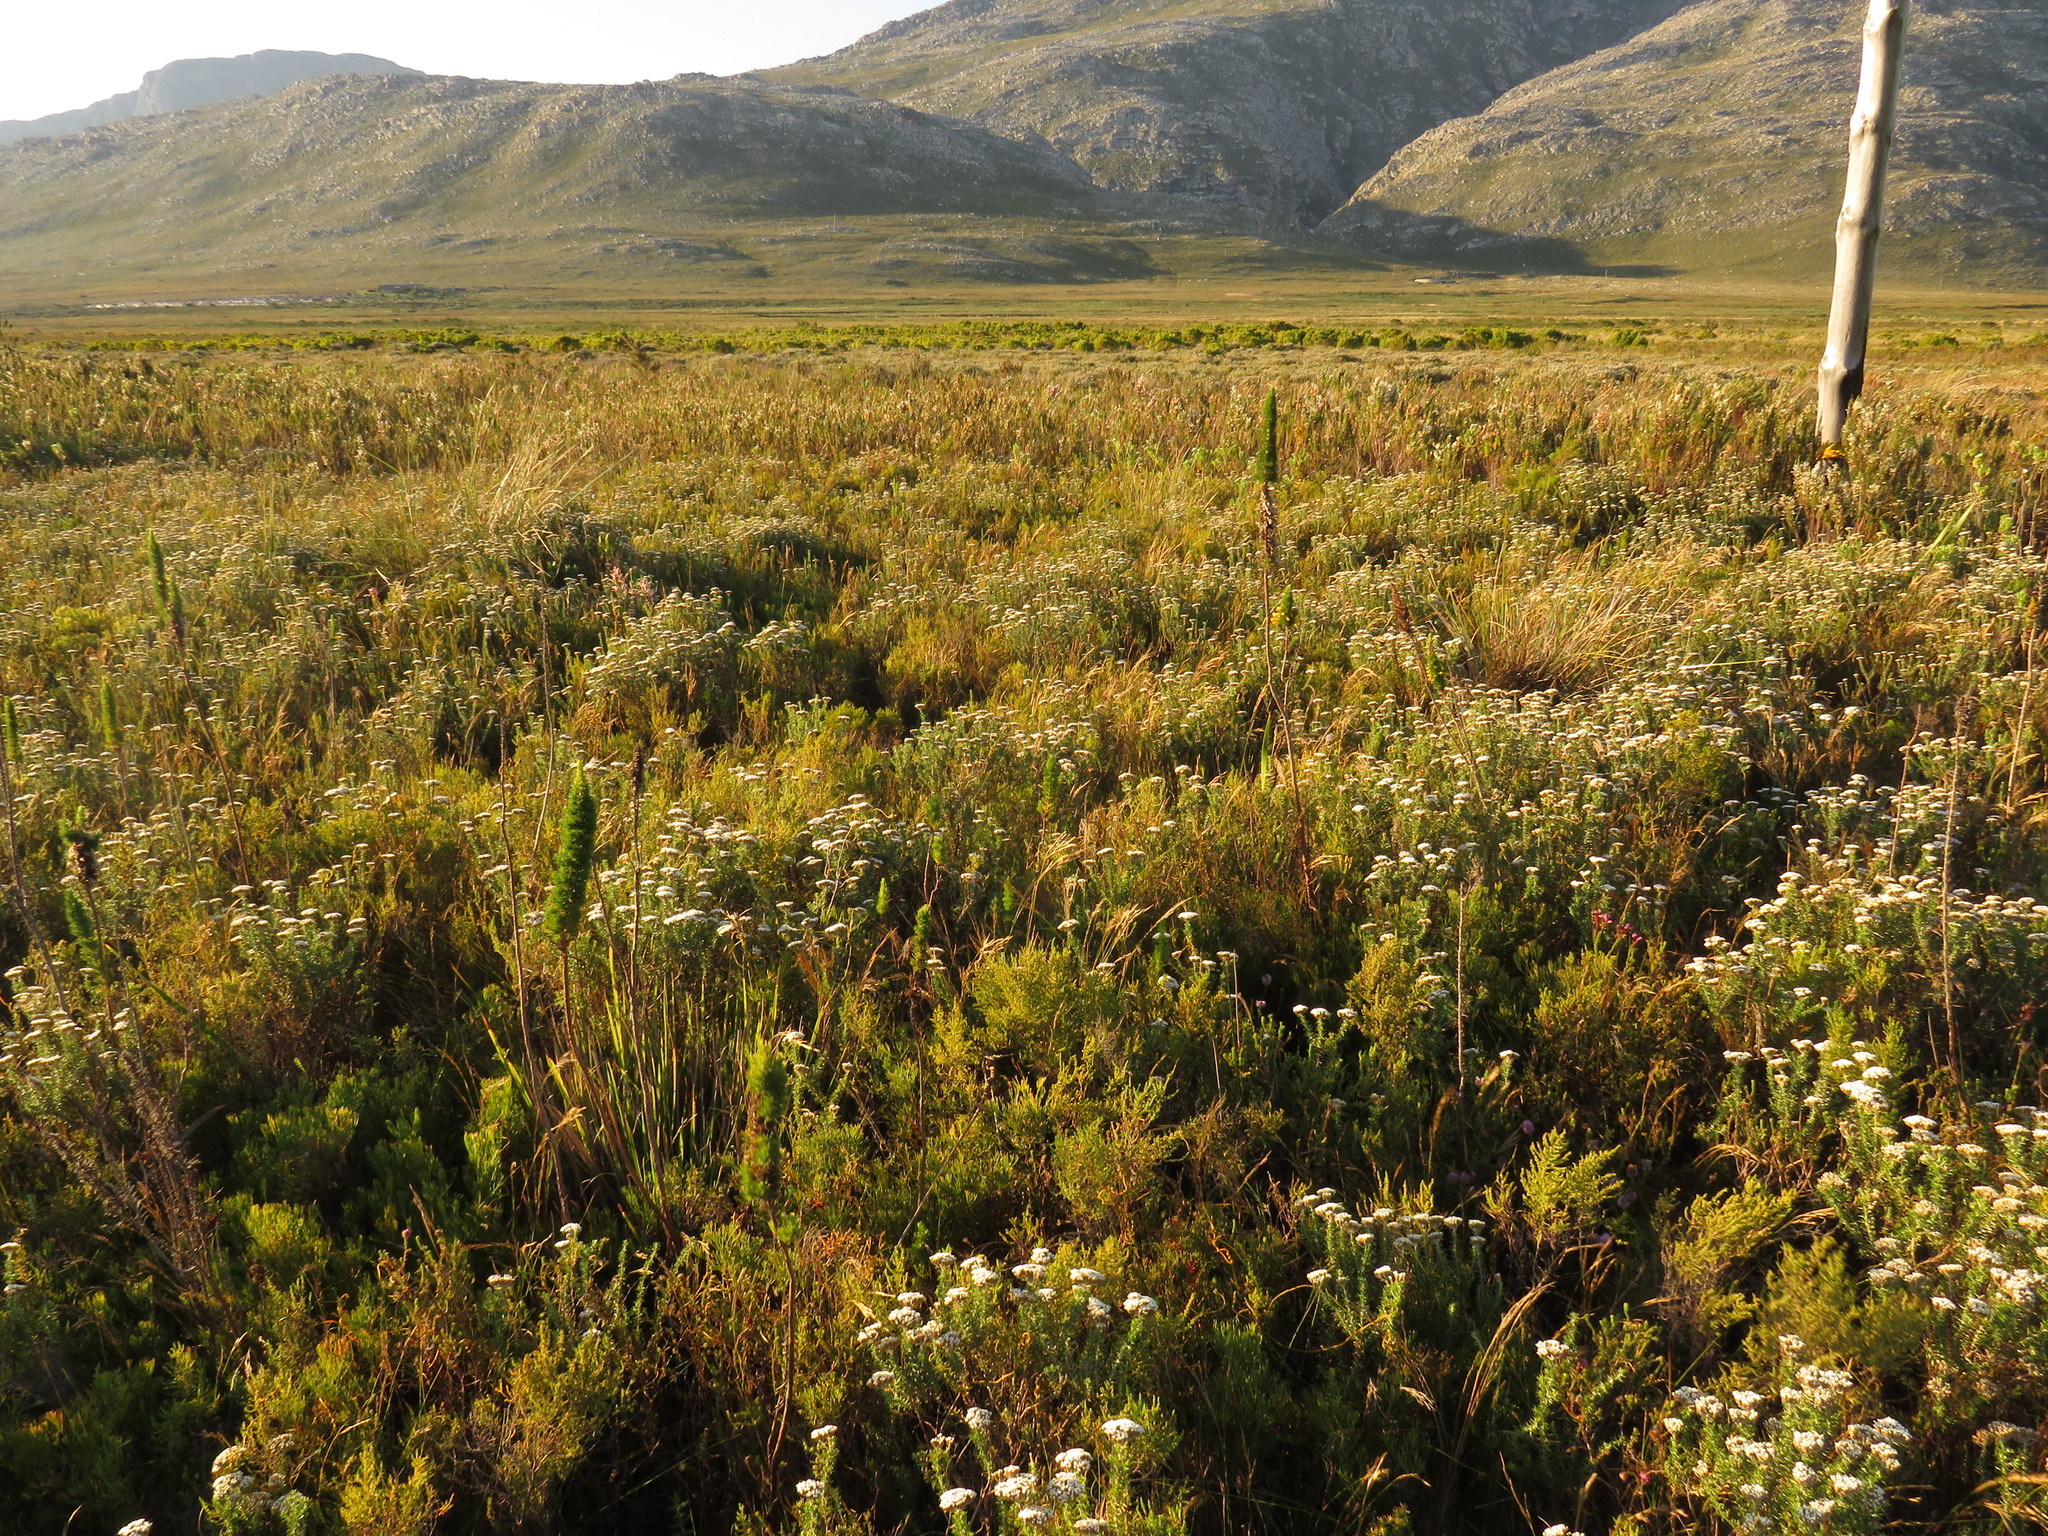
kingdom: Plantae
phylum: Tracheophyta
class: Magnoliopsida
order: Ericales
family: Ericaceae
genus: Erica
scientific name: Erica patersonia
